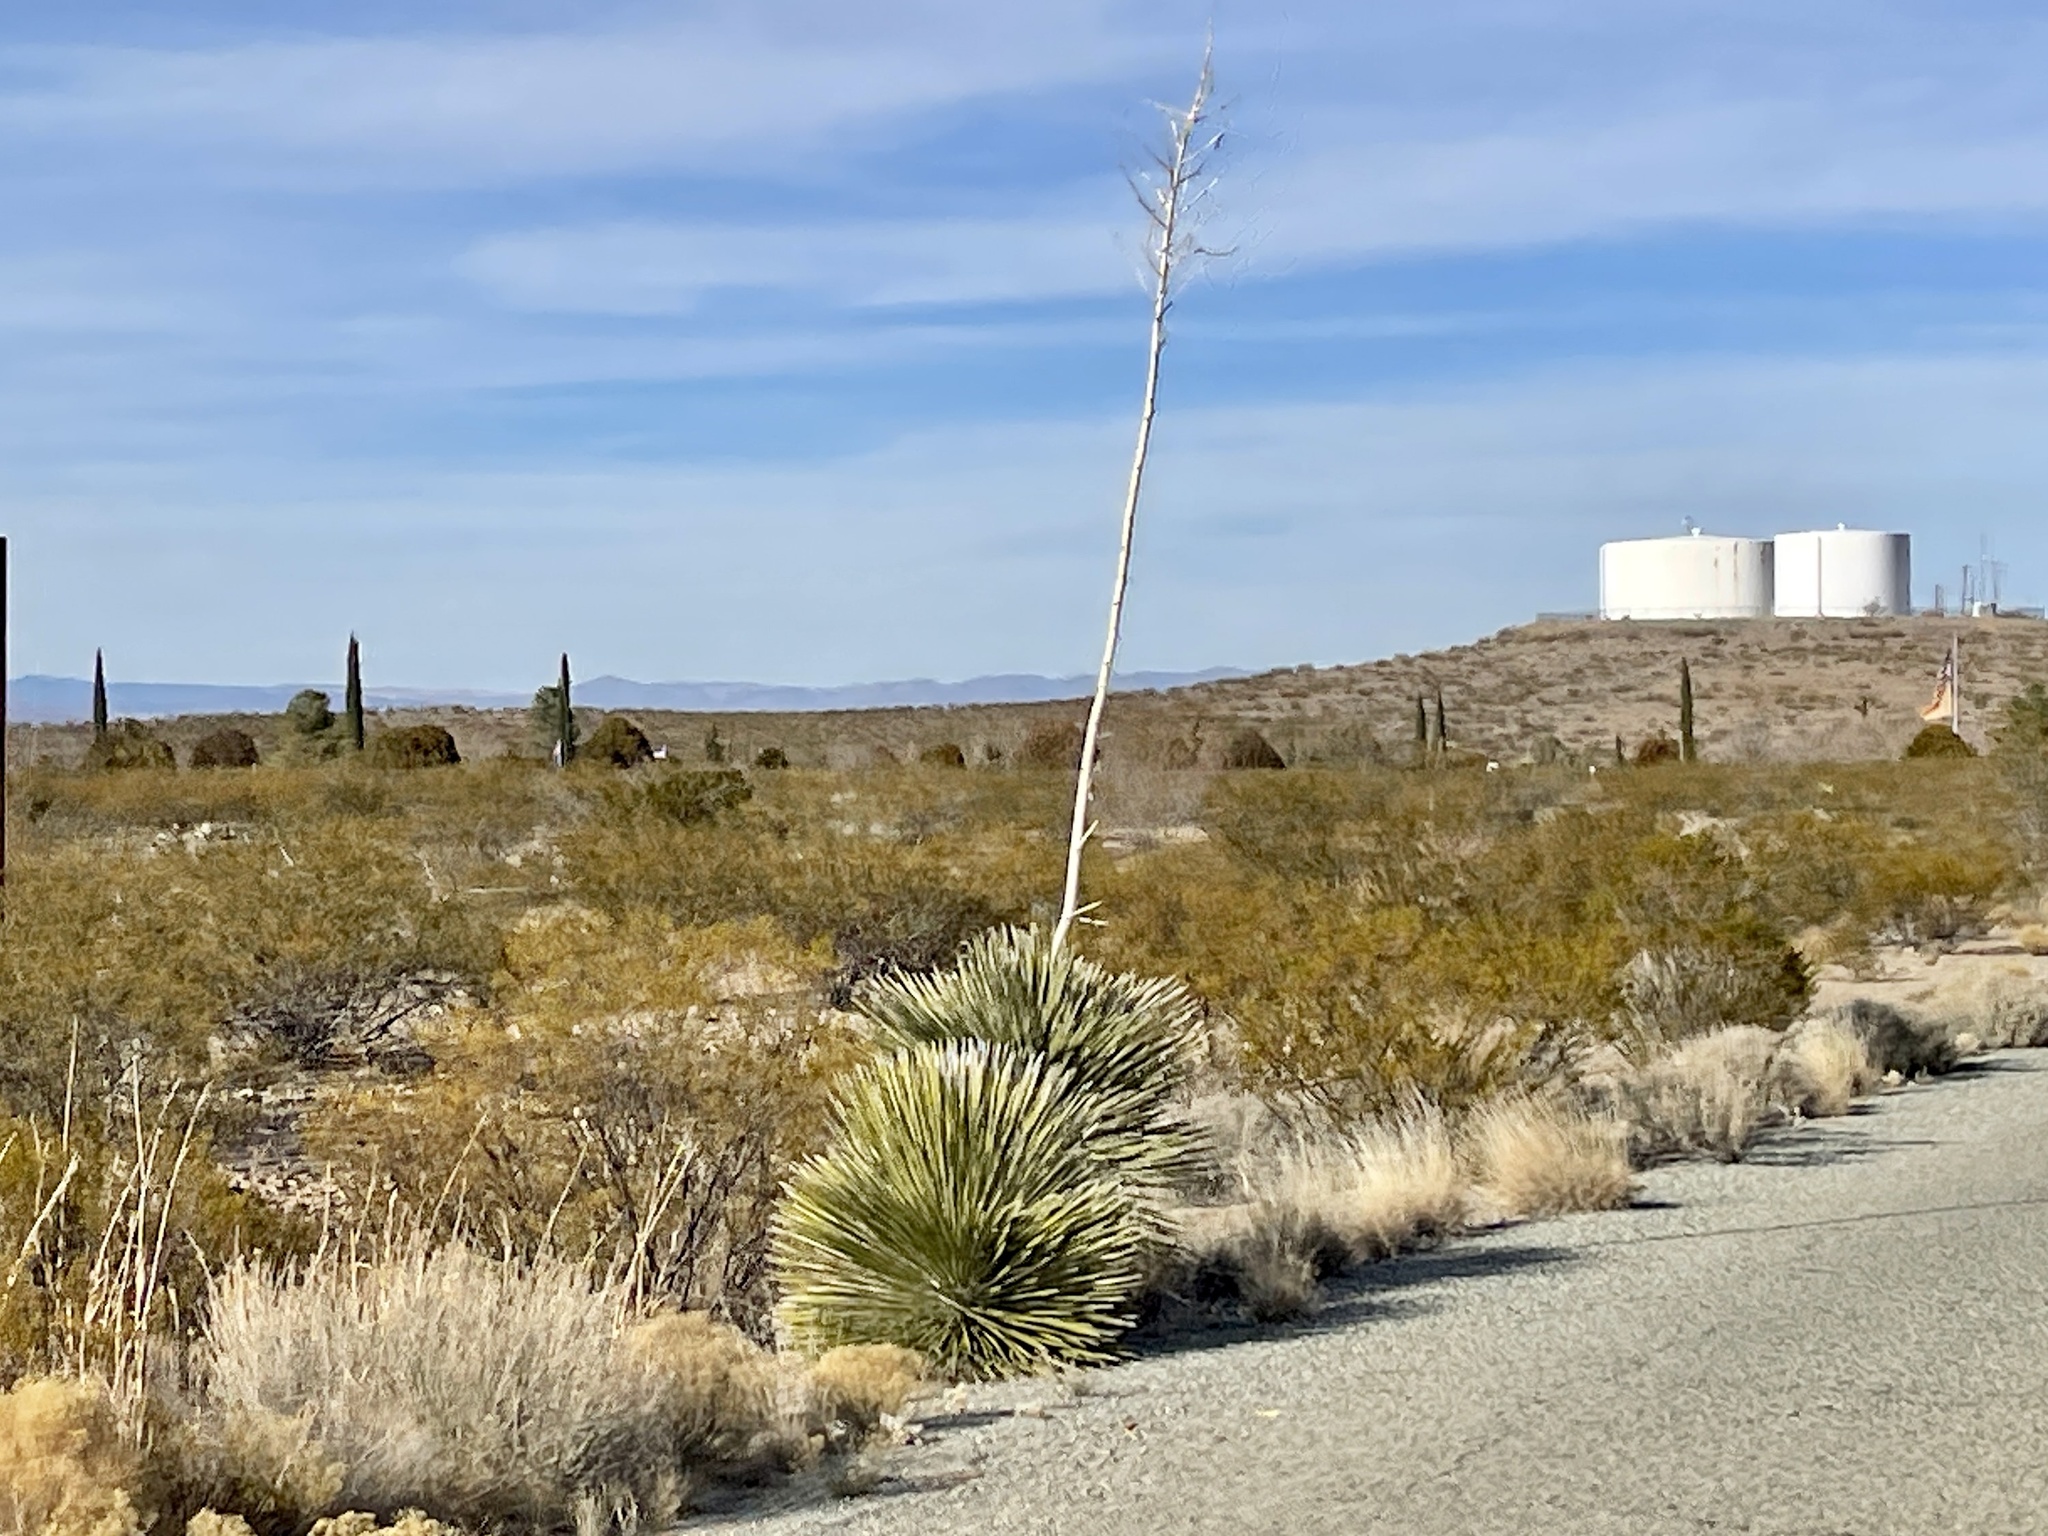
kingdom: Plantae
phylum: Tracheophyta
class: Liliopsida
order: Asparagales
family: Asparagaceae
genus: Yucca
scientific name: Yucca elata
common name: Palmella
